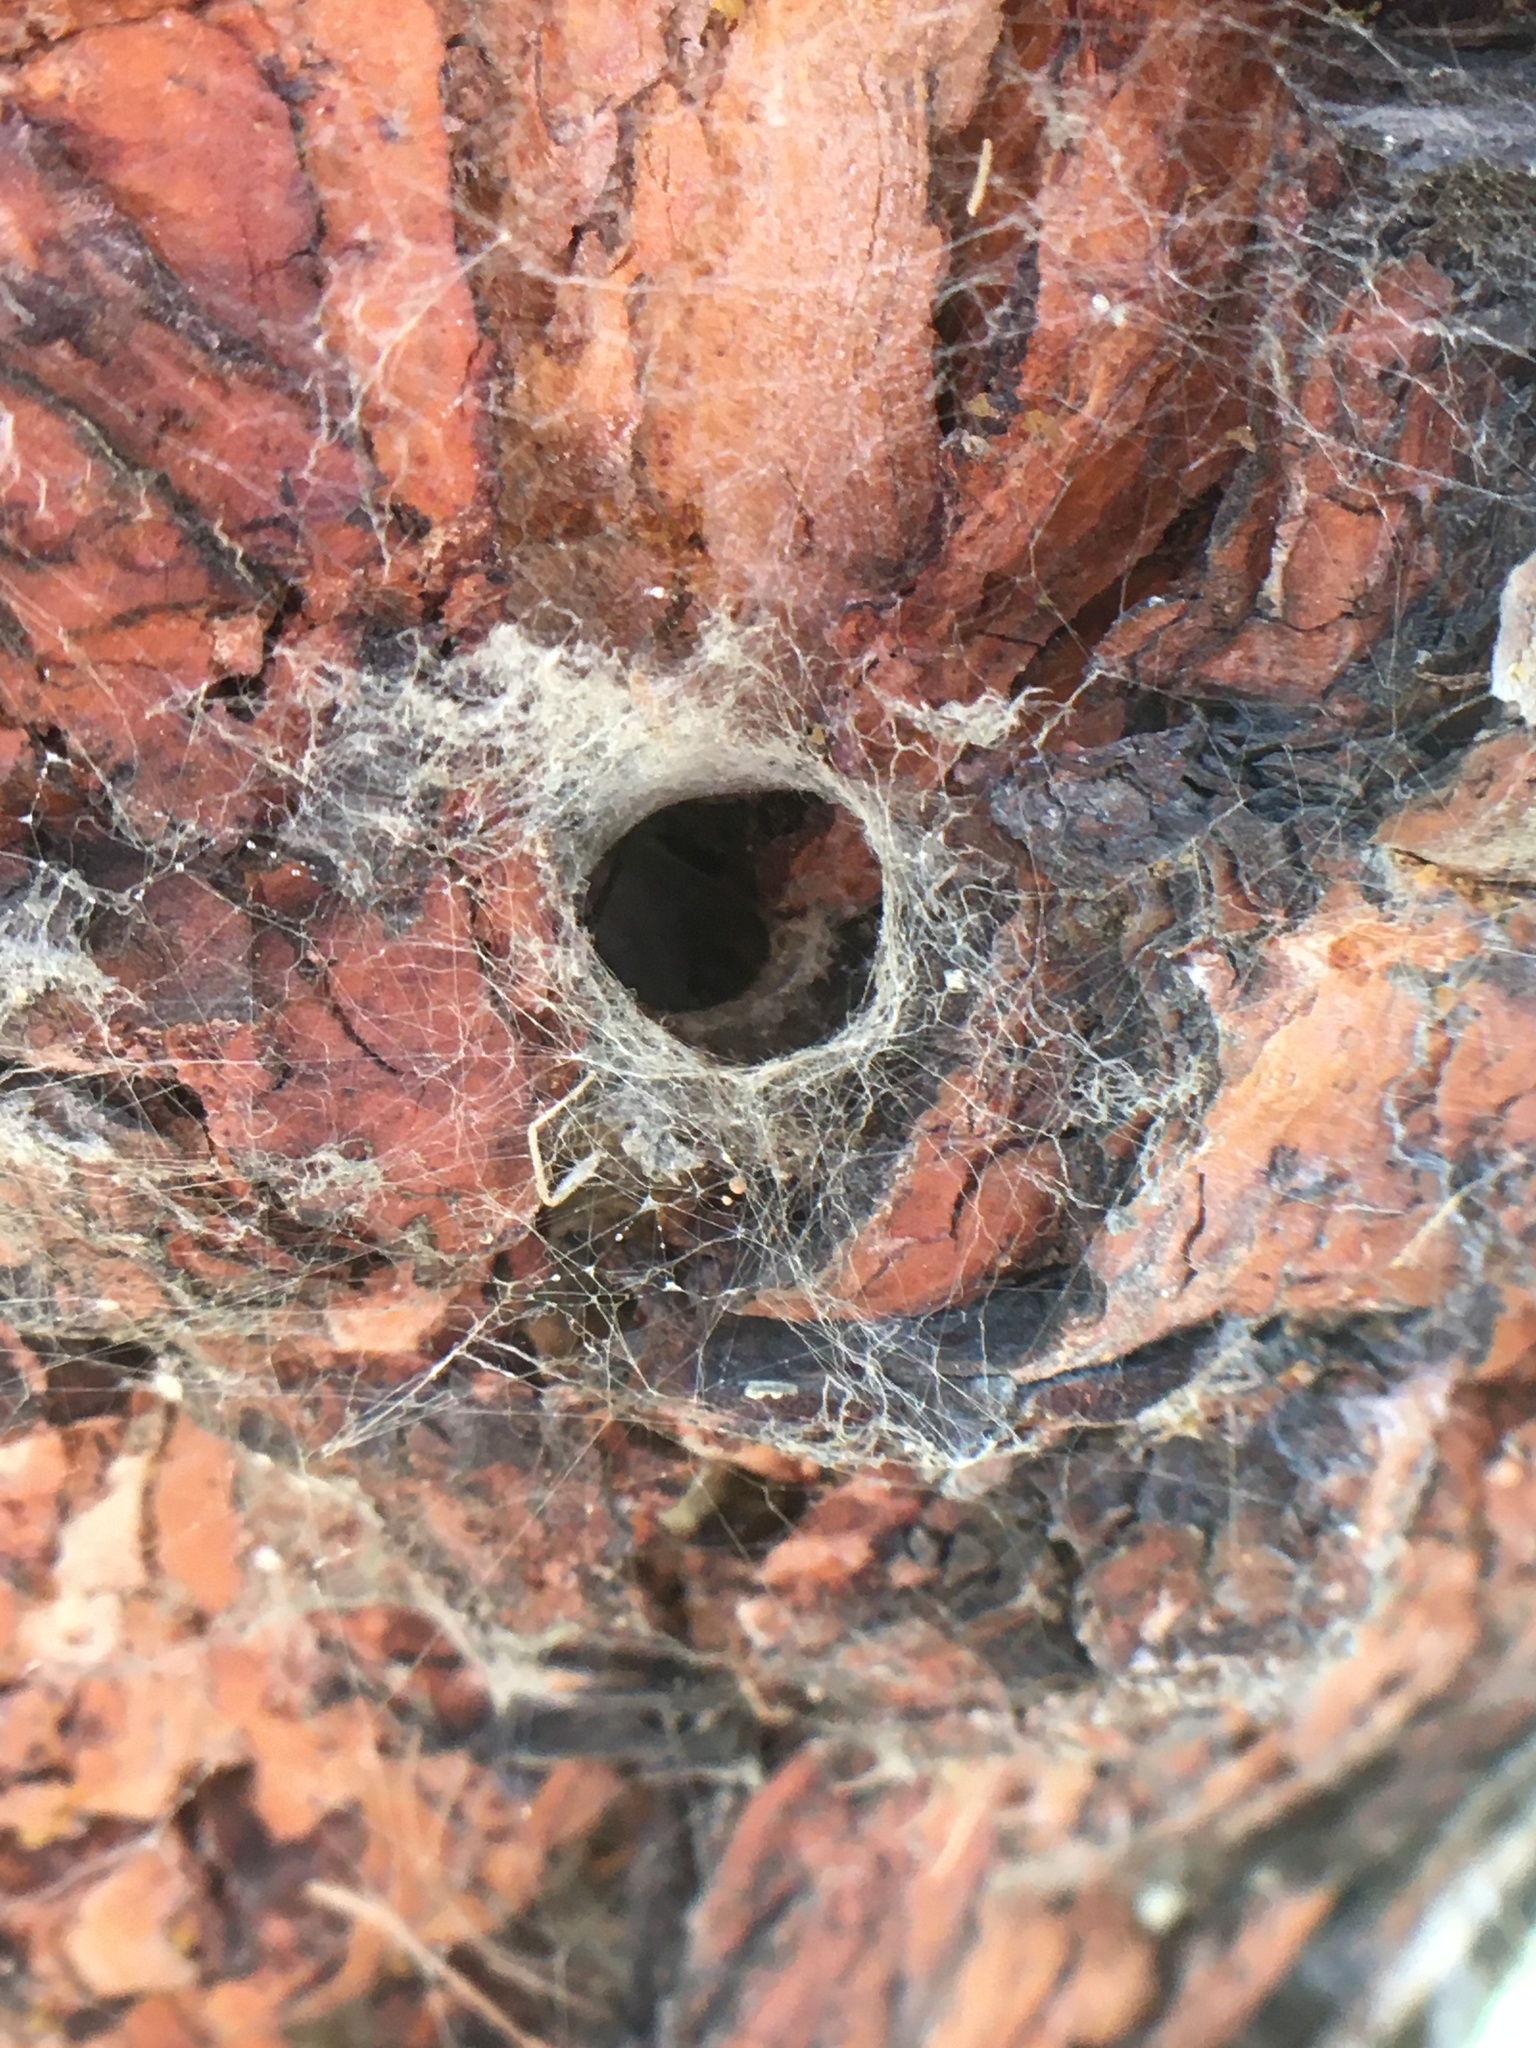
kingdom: Animalia
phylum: Arthropoda
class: Arachnida
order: Araneae
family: Theridiidae
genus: Steatoda
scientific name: Steatoda nobilis
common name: Cobweb weaver
